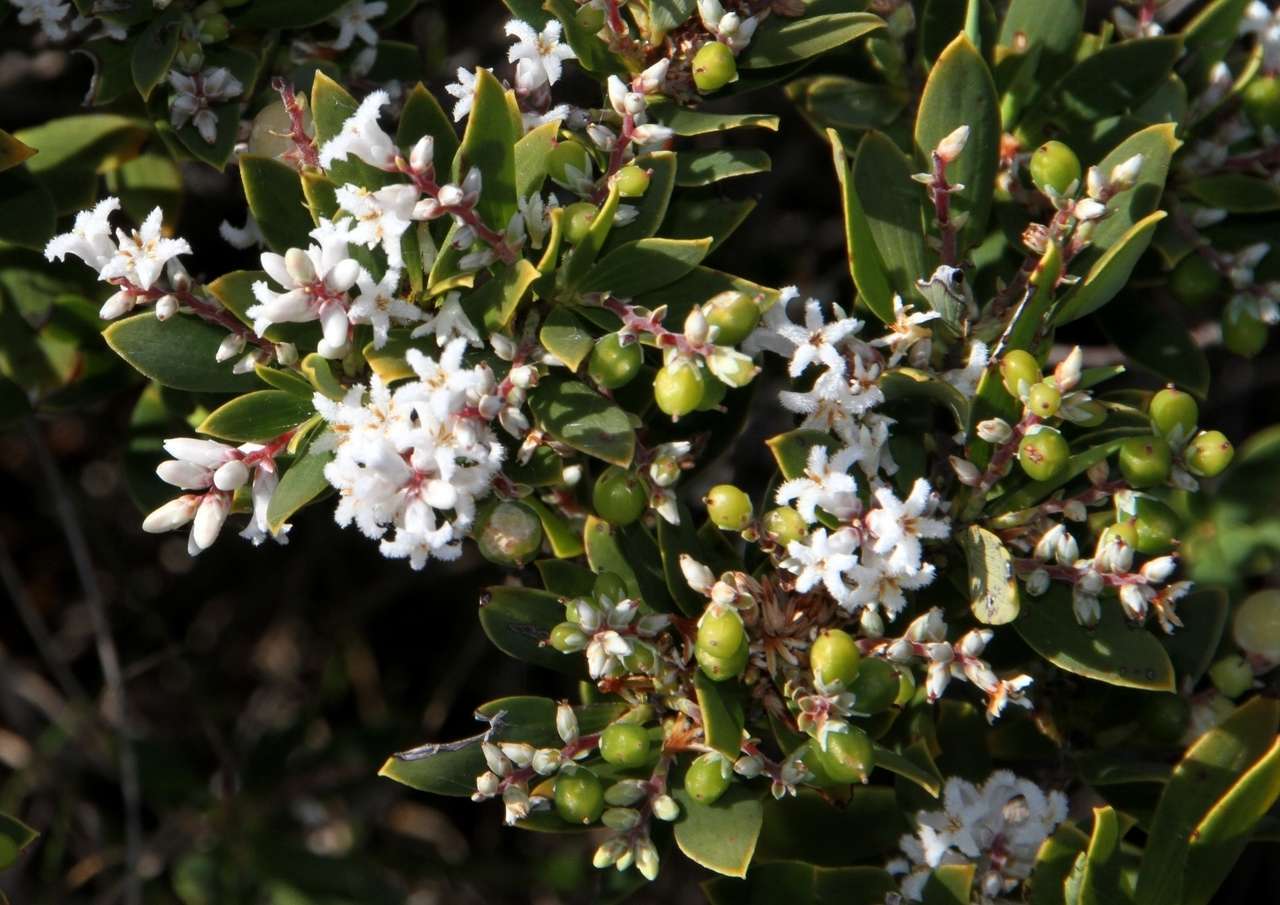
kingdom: Plantae
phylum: Tracheophyta
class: Magnoliopsida
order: Ericales
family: Ericaceae
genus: Leptecophylla
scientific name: Leptecophylla parvifolia
